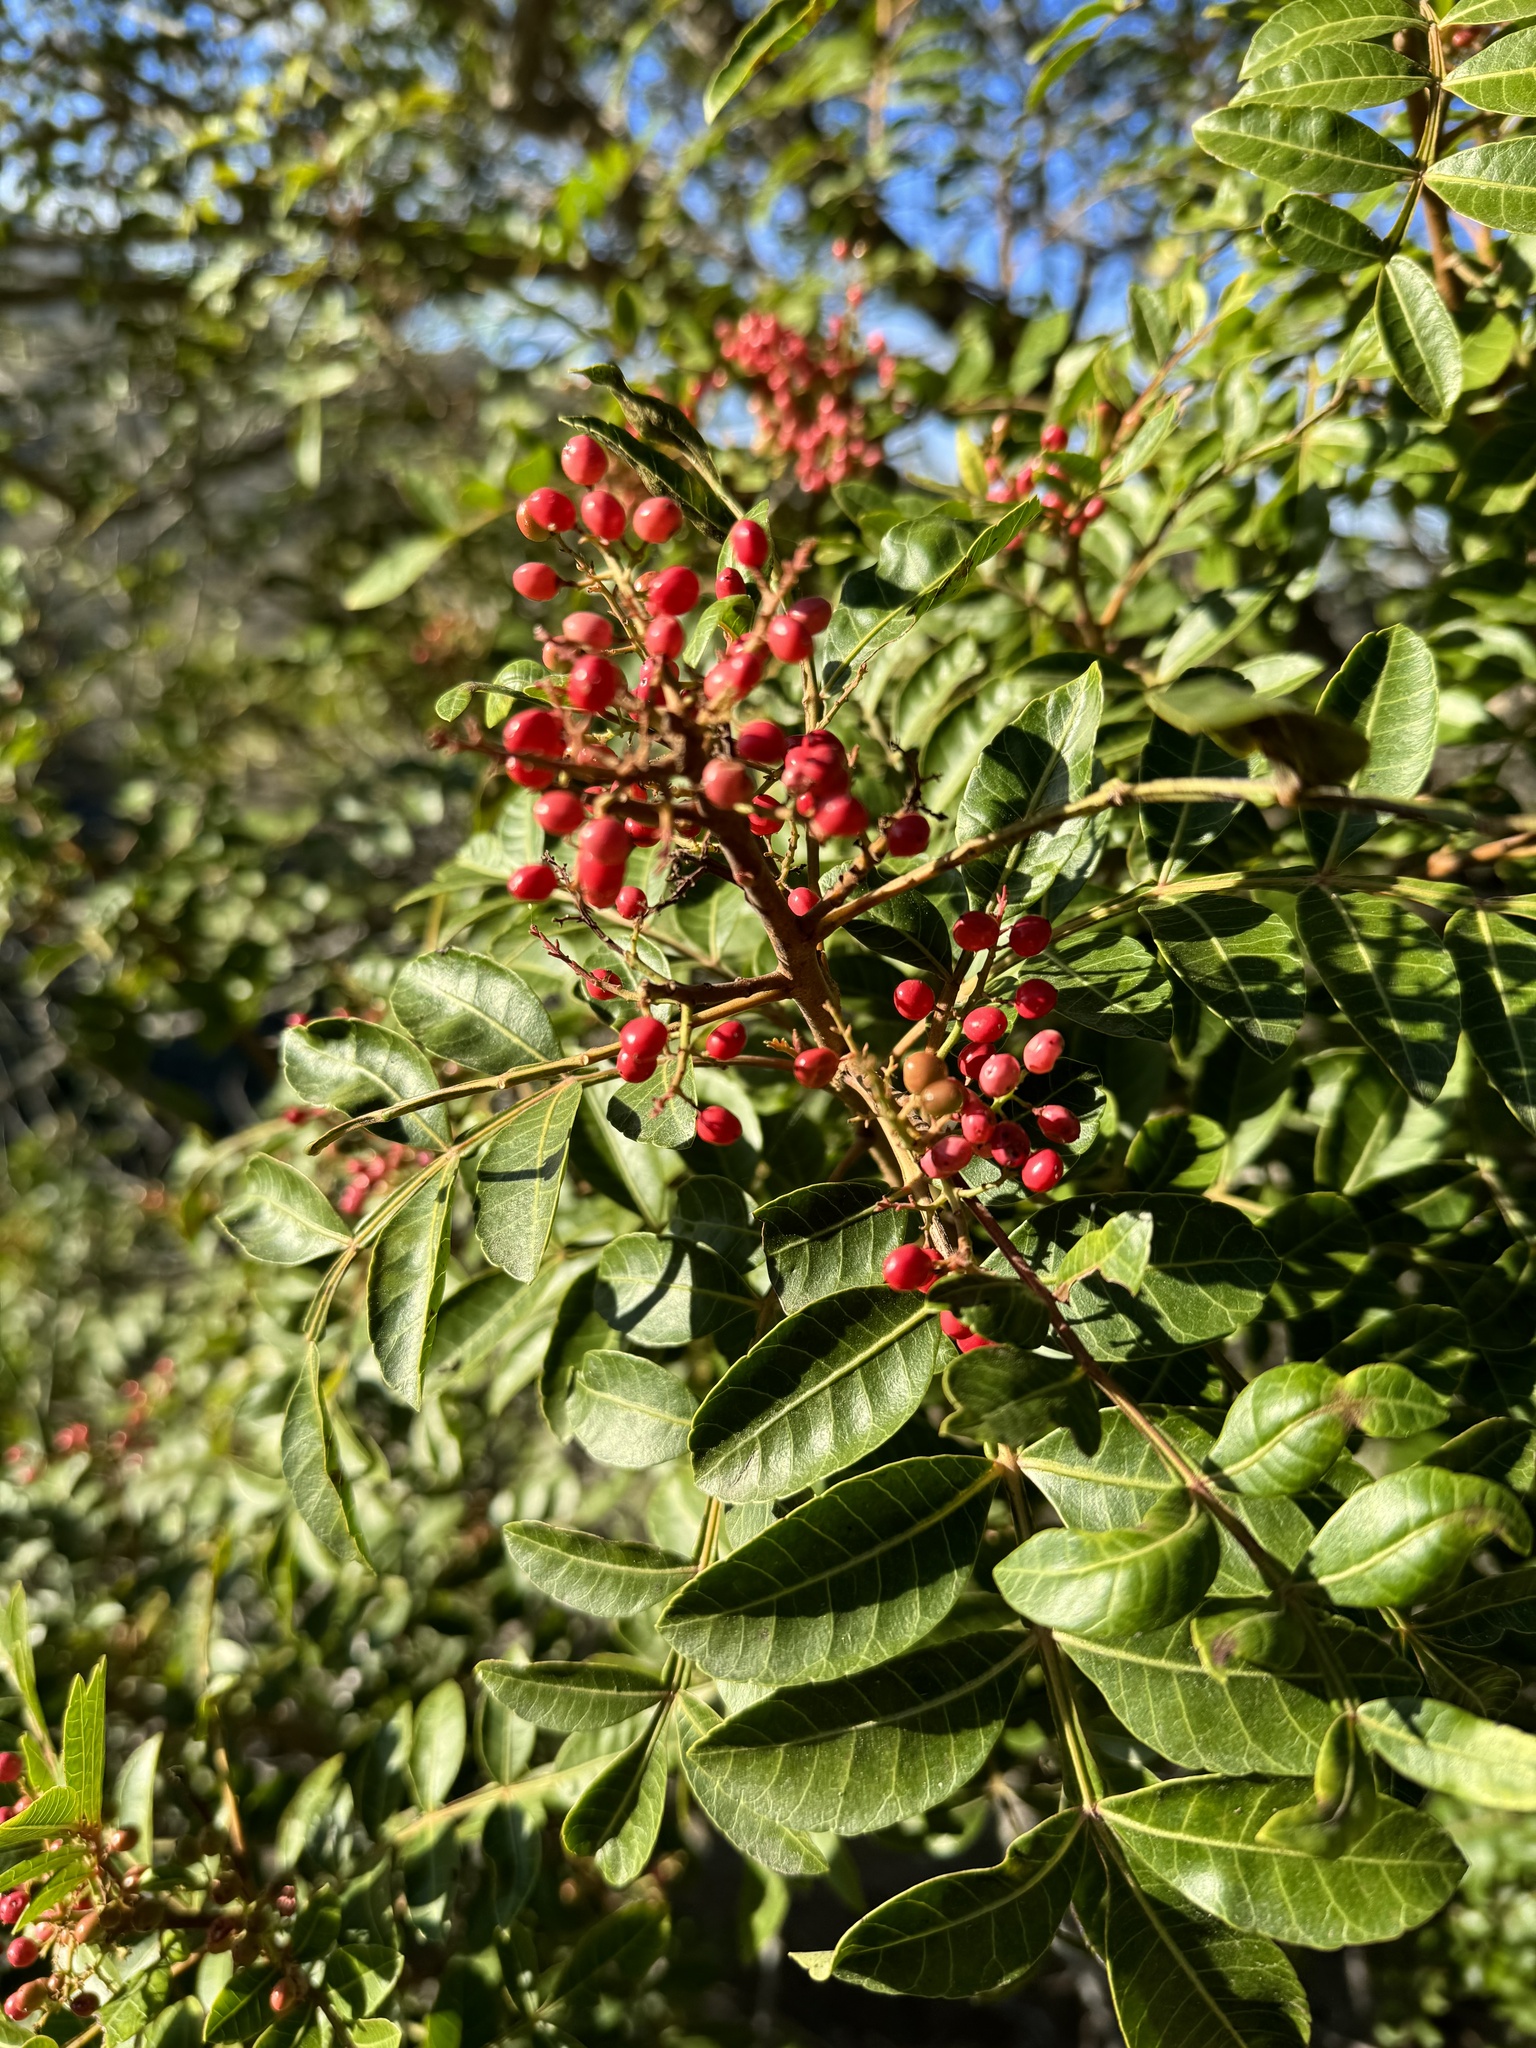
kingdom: Plantae
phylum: Tracheophyta
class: Magnoliopsida
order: Sapindales
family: Anacardiaceae
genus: Schinus
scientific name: Schinus terebinthifolia
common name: Brazilian peppertree
